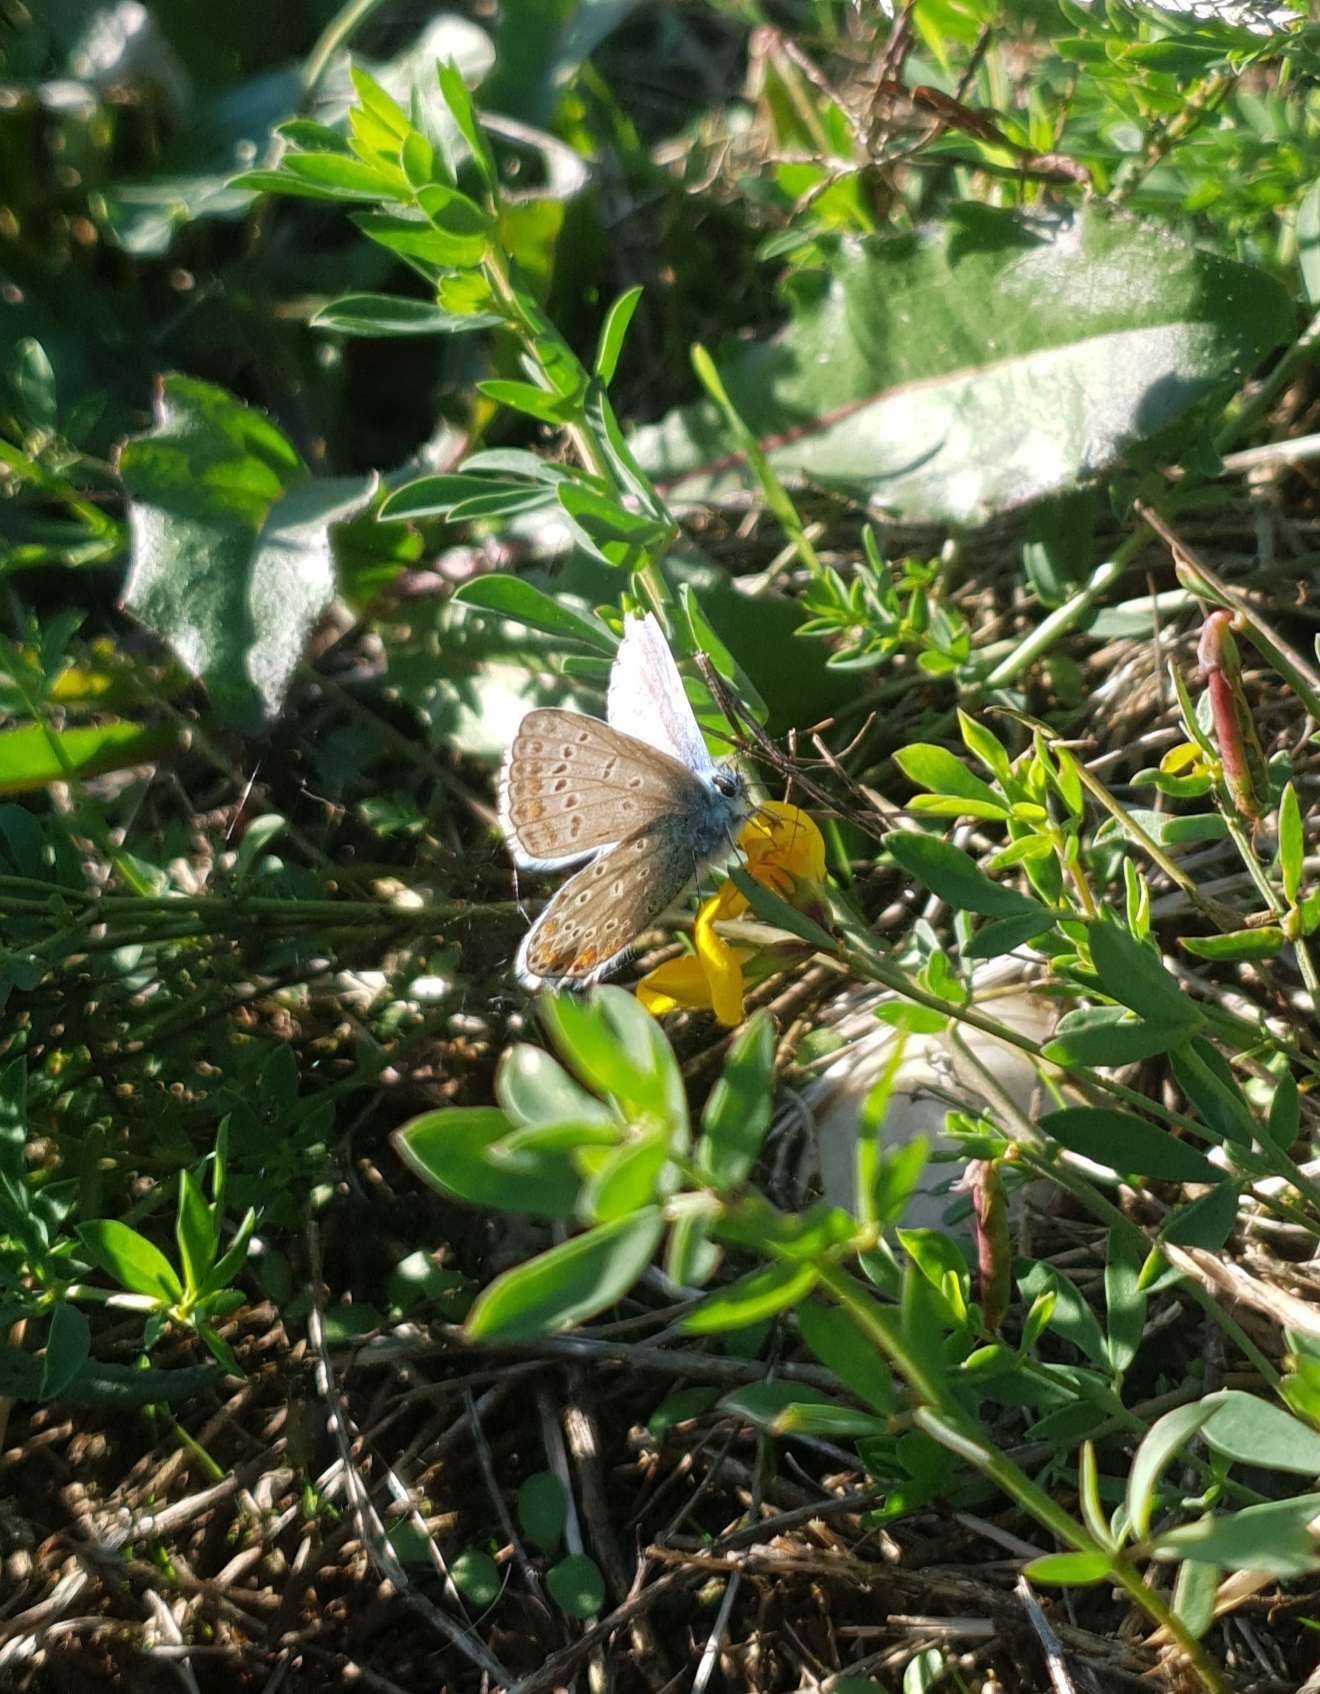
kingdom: Animalia
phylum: Arthropoda
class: Insecta
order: Lepidoptera
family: Lycaenidae
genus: Polyommatus
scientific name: Polyommatus icarus
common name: Common blue
